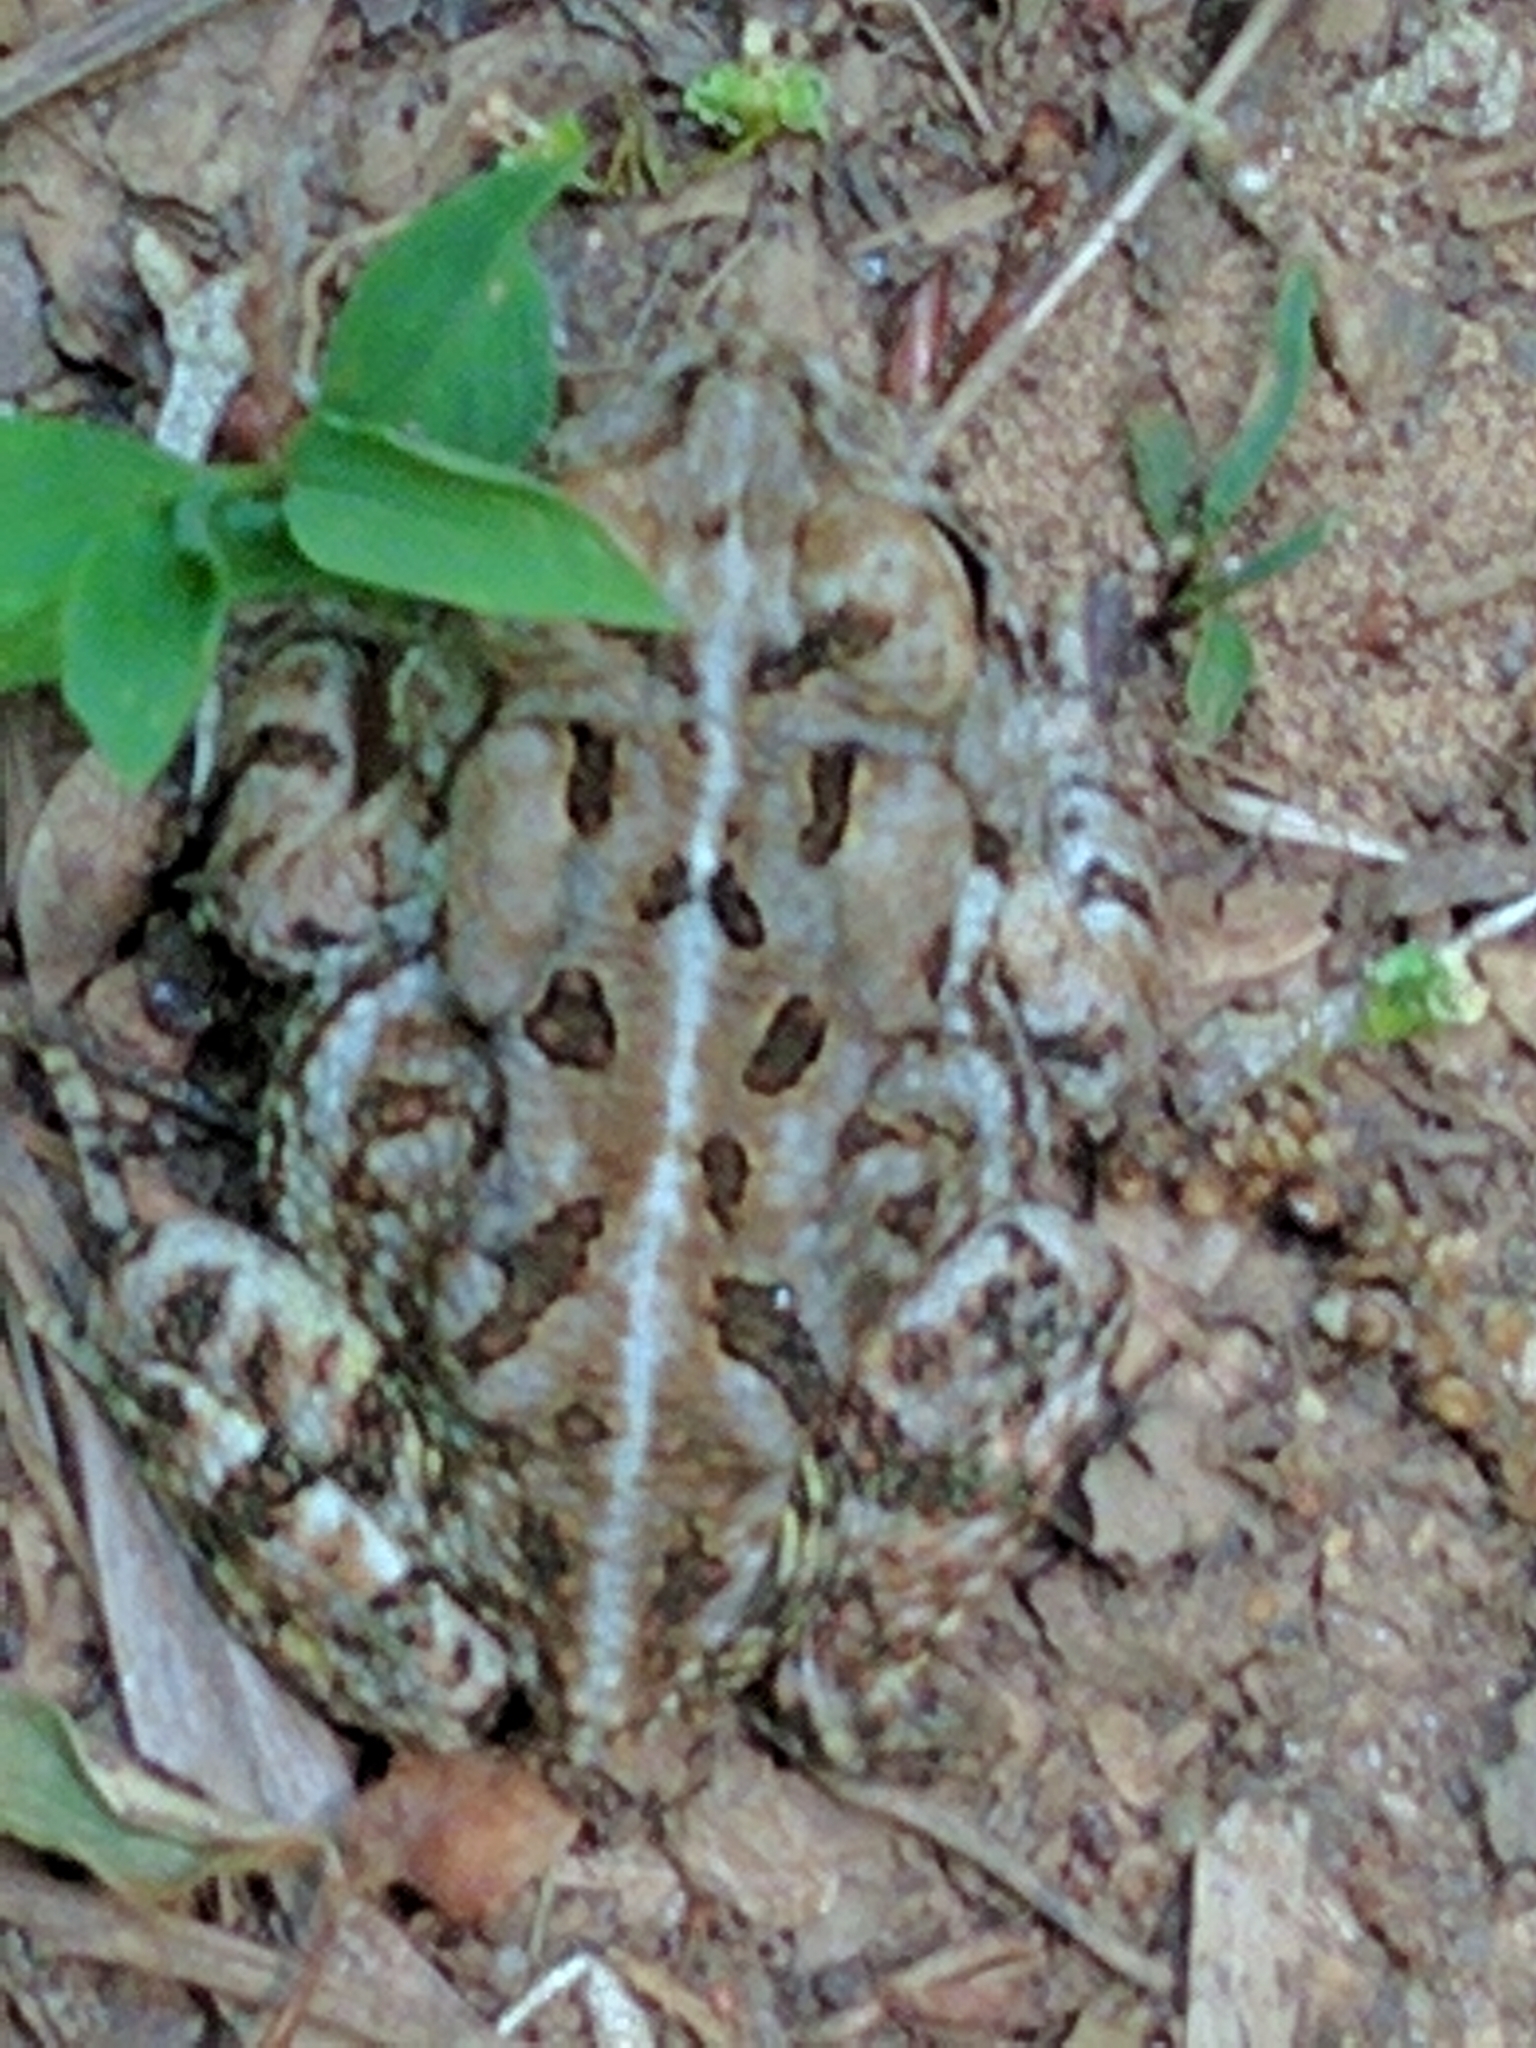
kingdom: Animalia
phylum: Chordata
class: Amphibia
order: Anura
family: Bufonidae
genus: Anaxyrus
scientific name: Anaxyrus fowleri
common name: Fowler's toad
